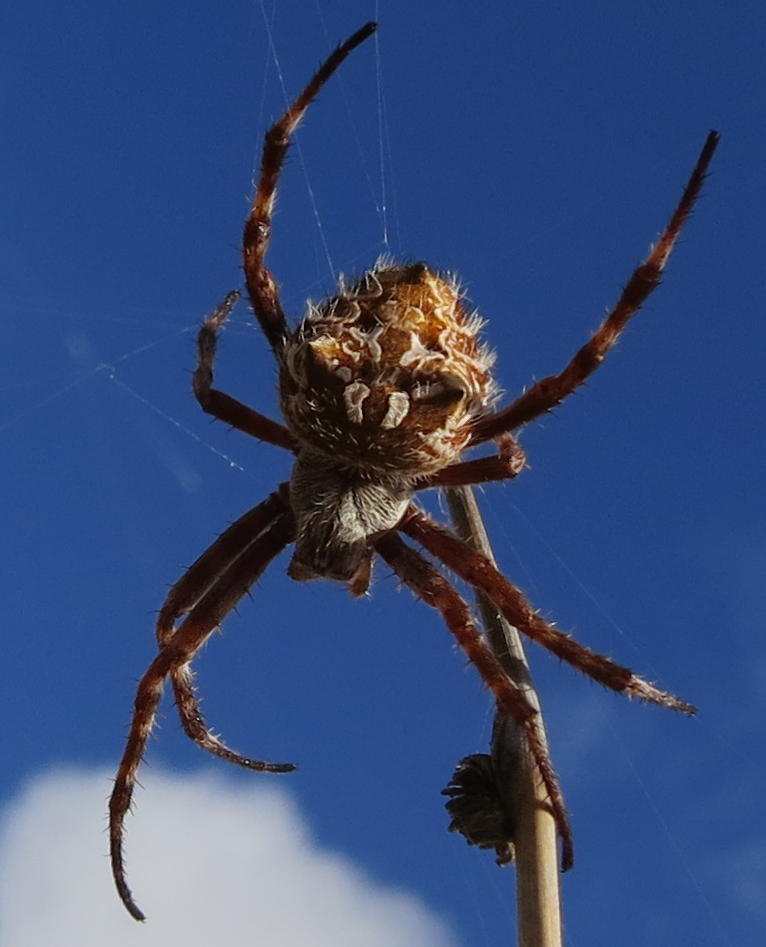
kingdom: Animalia
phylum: Arthropoda
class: Arachnida
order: Araneae
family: Araneidae
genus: Backobourkia
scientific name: Backobourkia brouni
